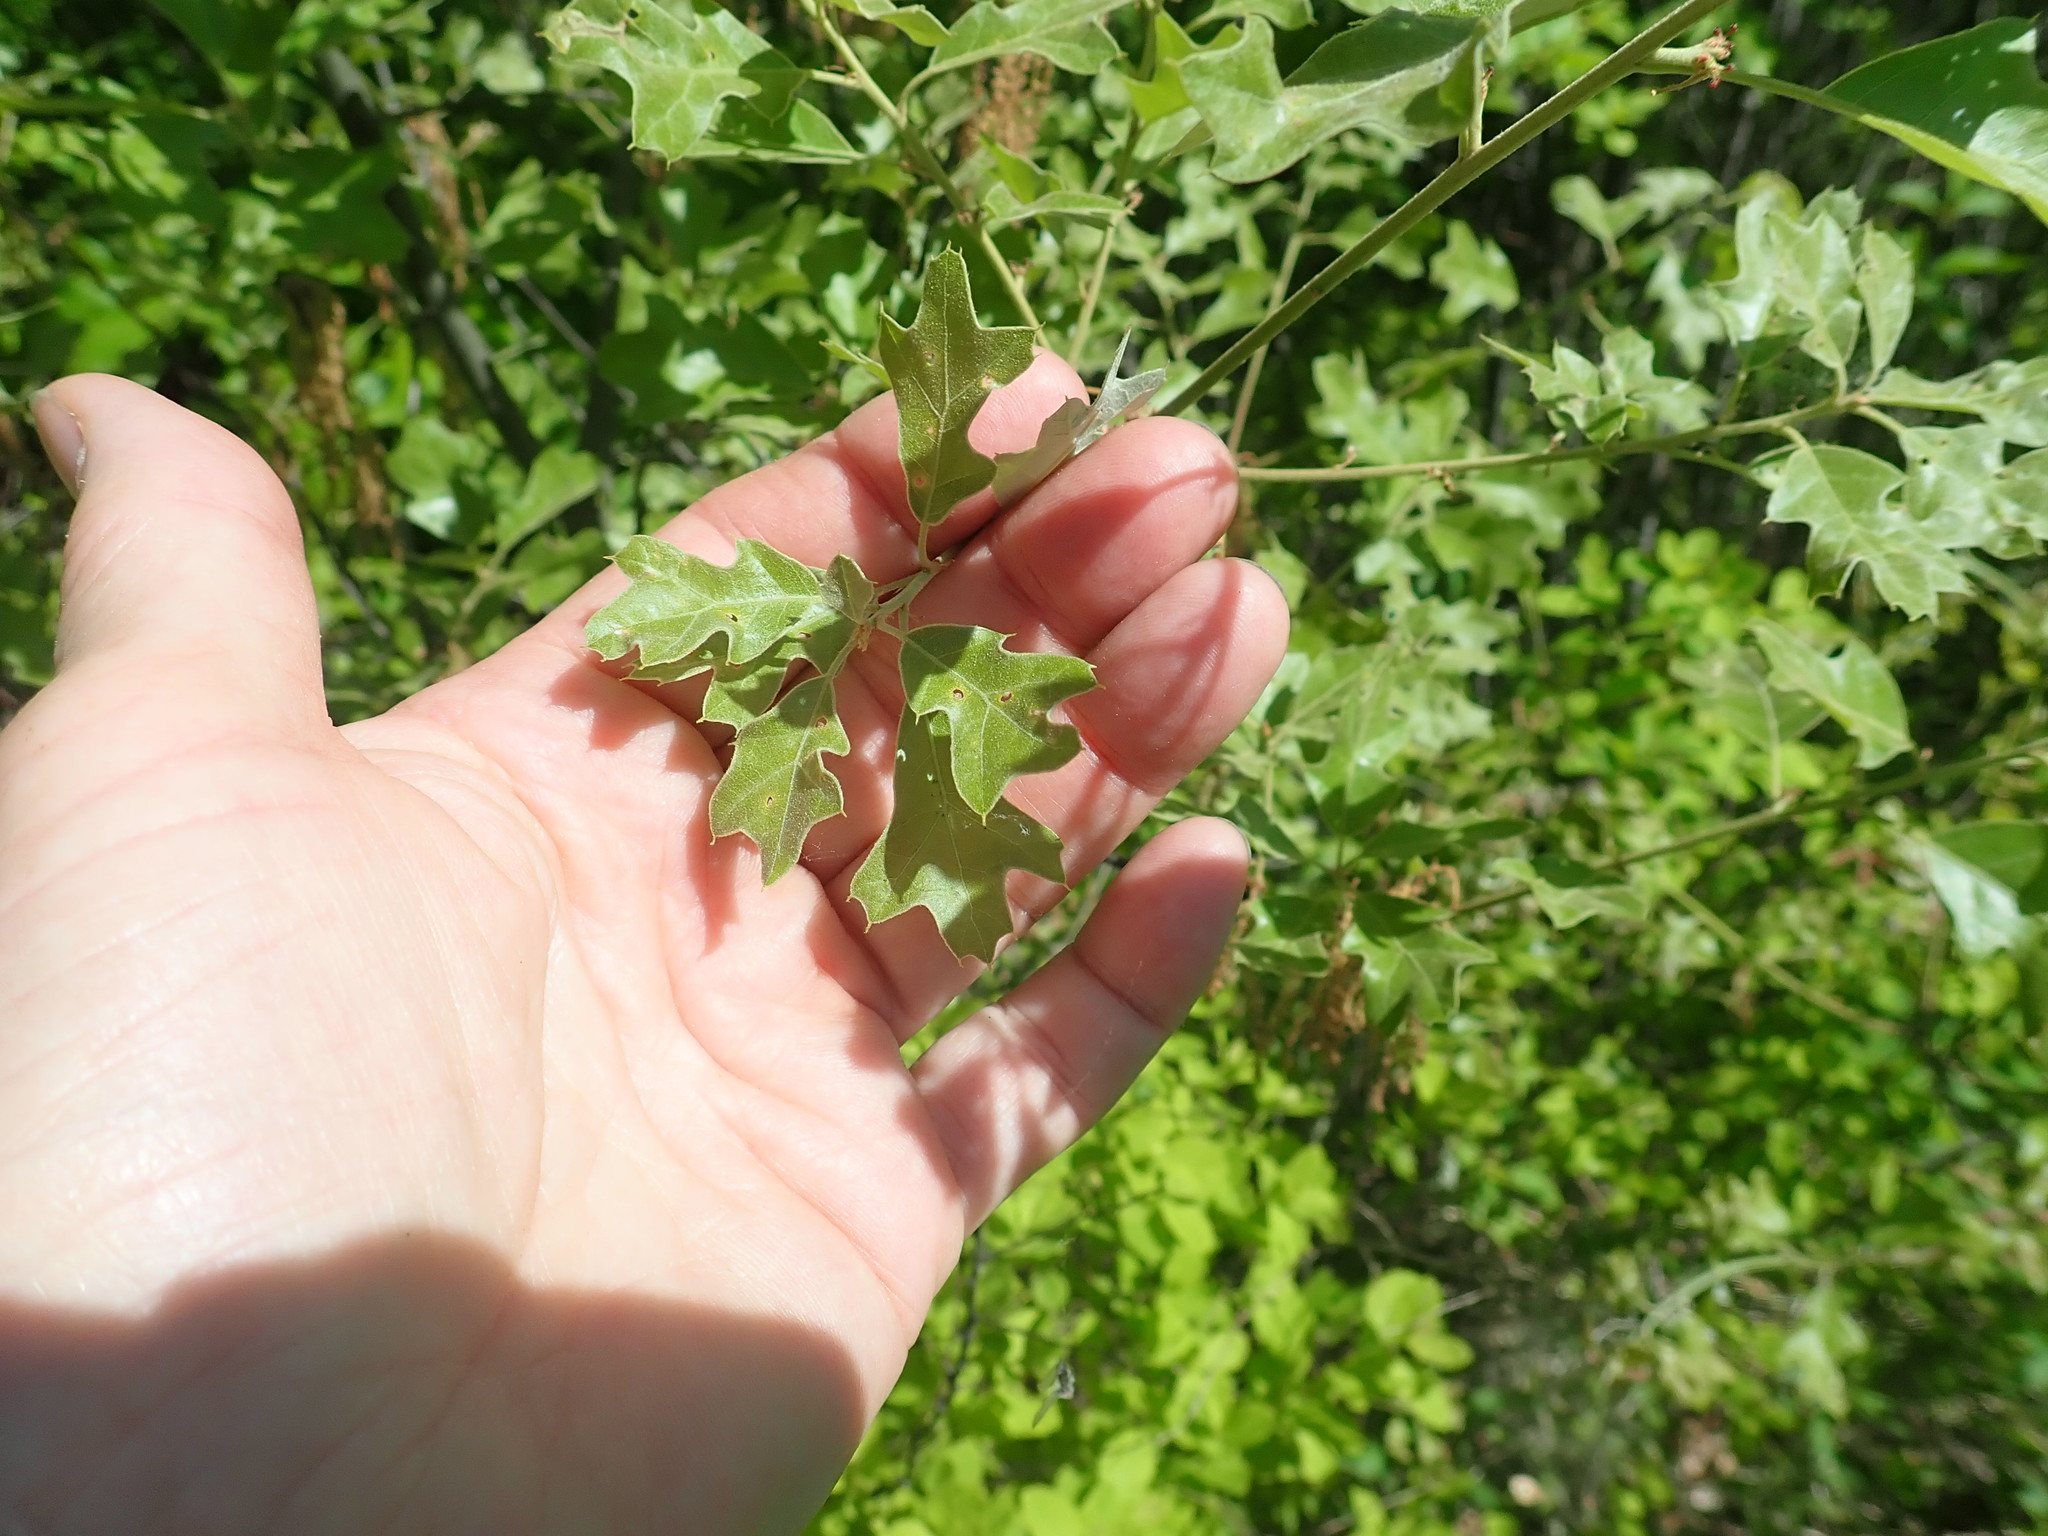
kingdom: Plantae
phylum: Tracheophyta
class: Magnoliopsida
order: Fagales
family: Fagaceae
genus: Quercus
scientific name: Quercus ilicifolia
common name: Bear oak
